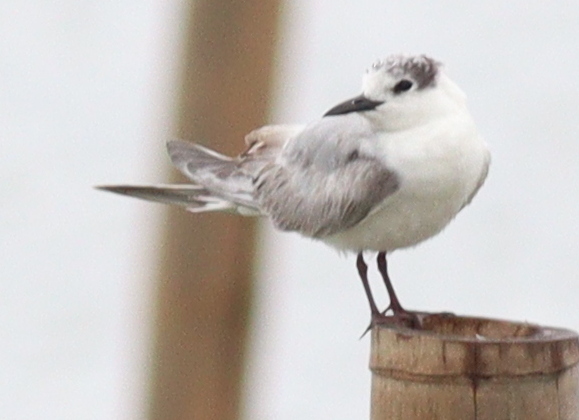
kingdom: Animalia
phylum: Chordata
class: Aves
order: Charadriiformes
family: Laridae
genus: Chlidonias
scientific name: Chlidonias hybrida
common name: Whiskered tern
